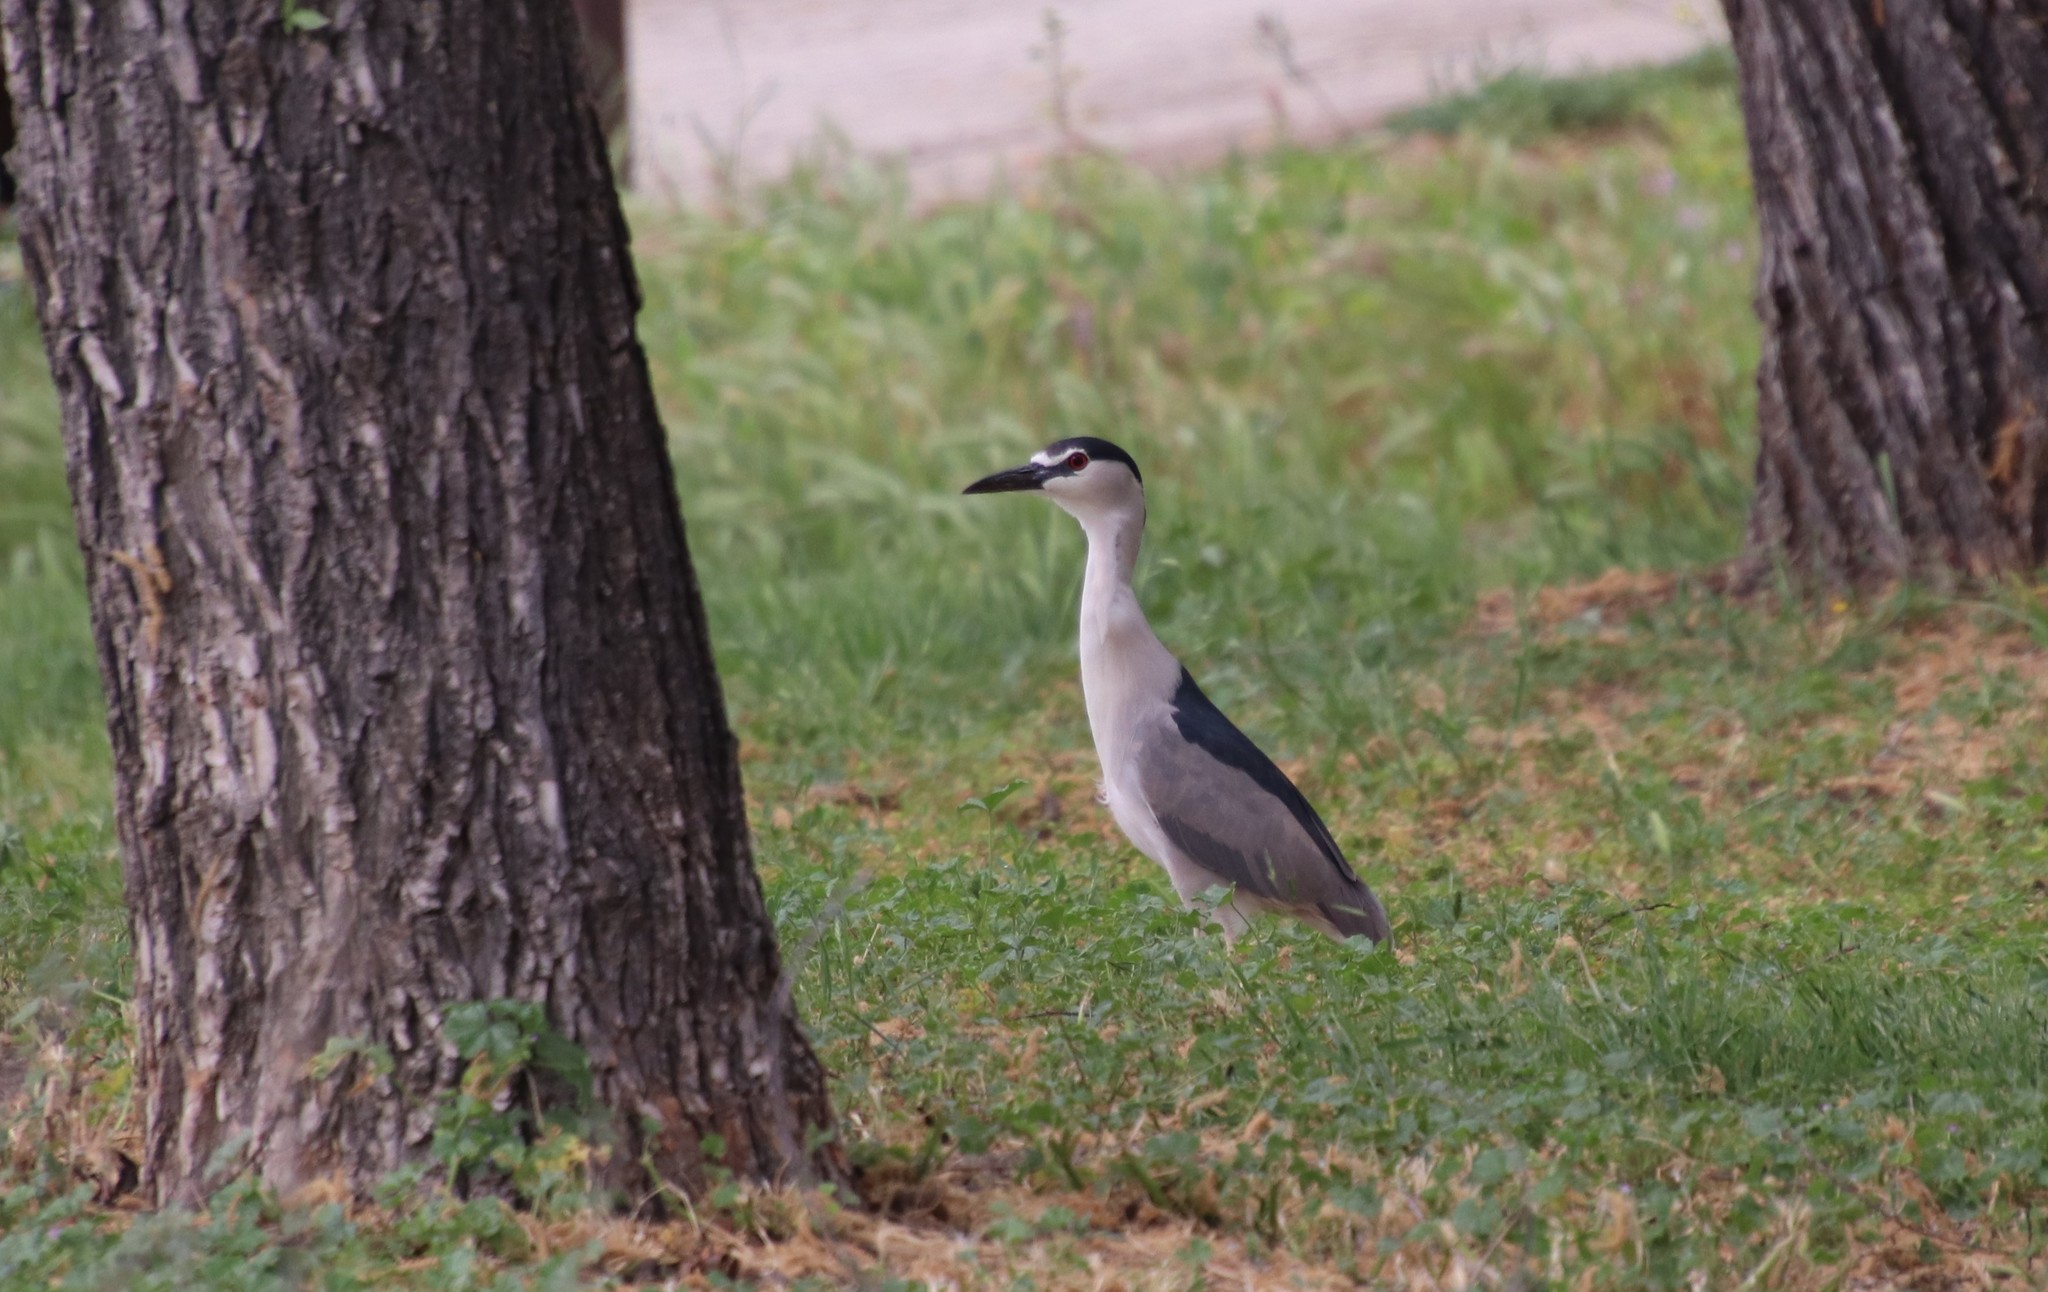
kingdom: Animalia
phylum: Chordata
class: Aves
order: Pelecaniformes
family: Ardeidae
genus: Nycticorax
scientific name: Nycticorax nycticorax
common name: Black-crowned night heron
